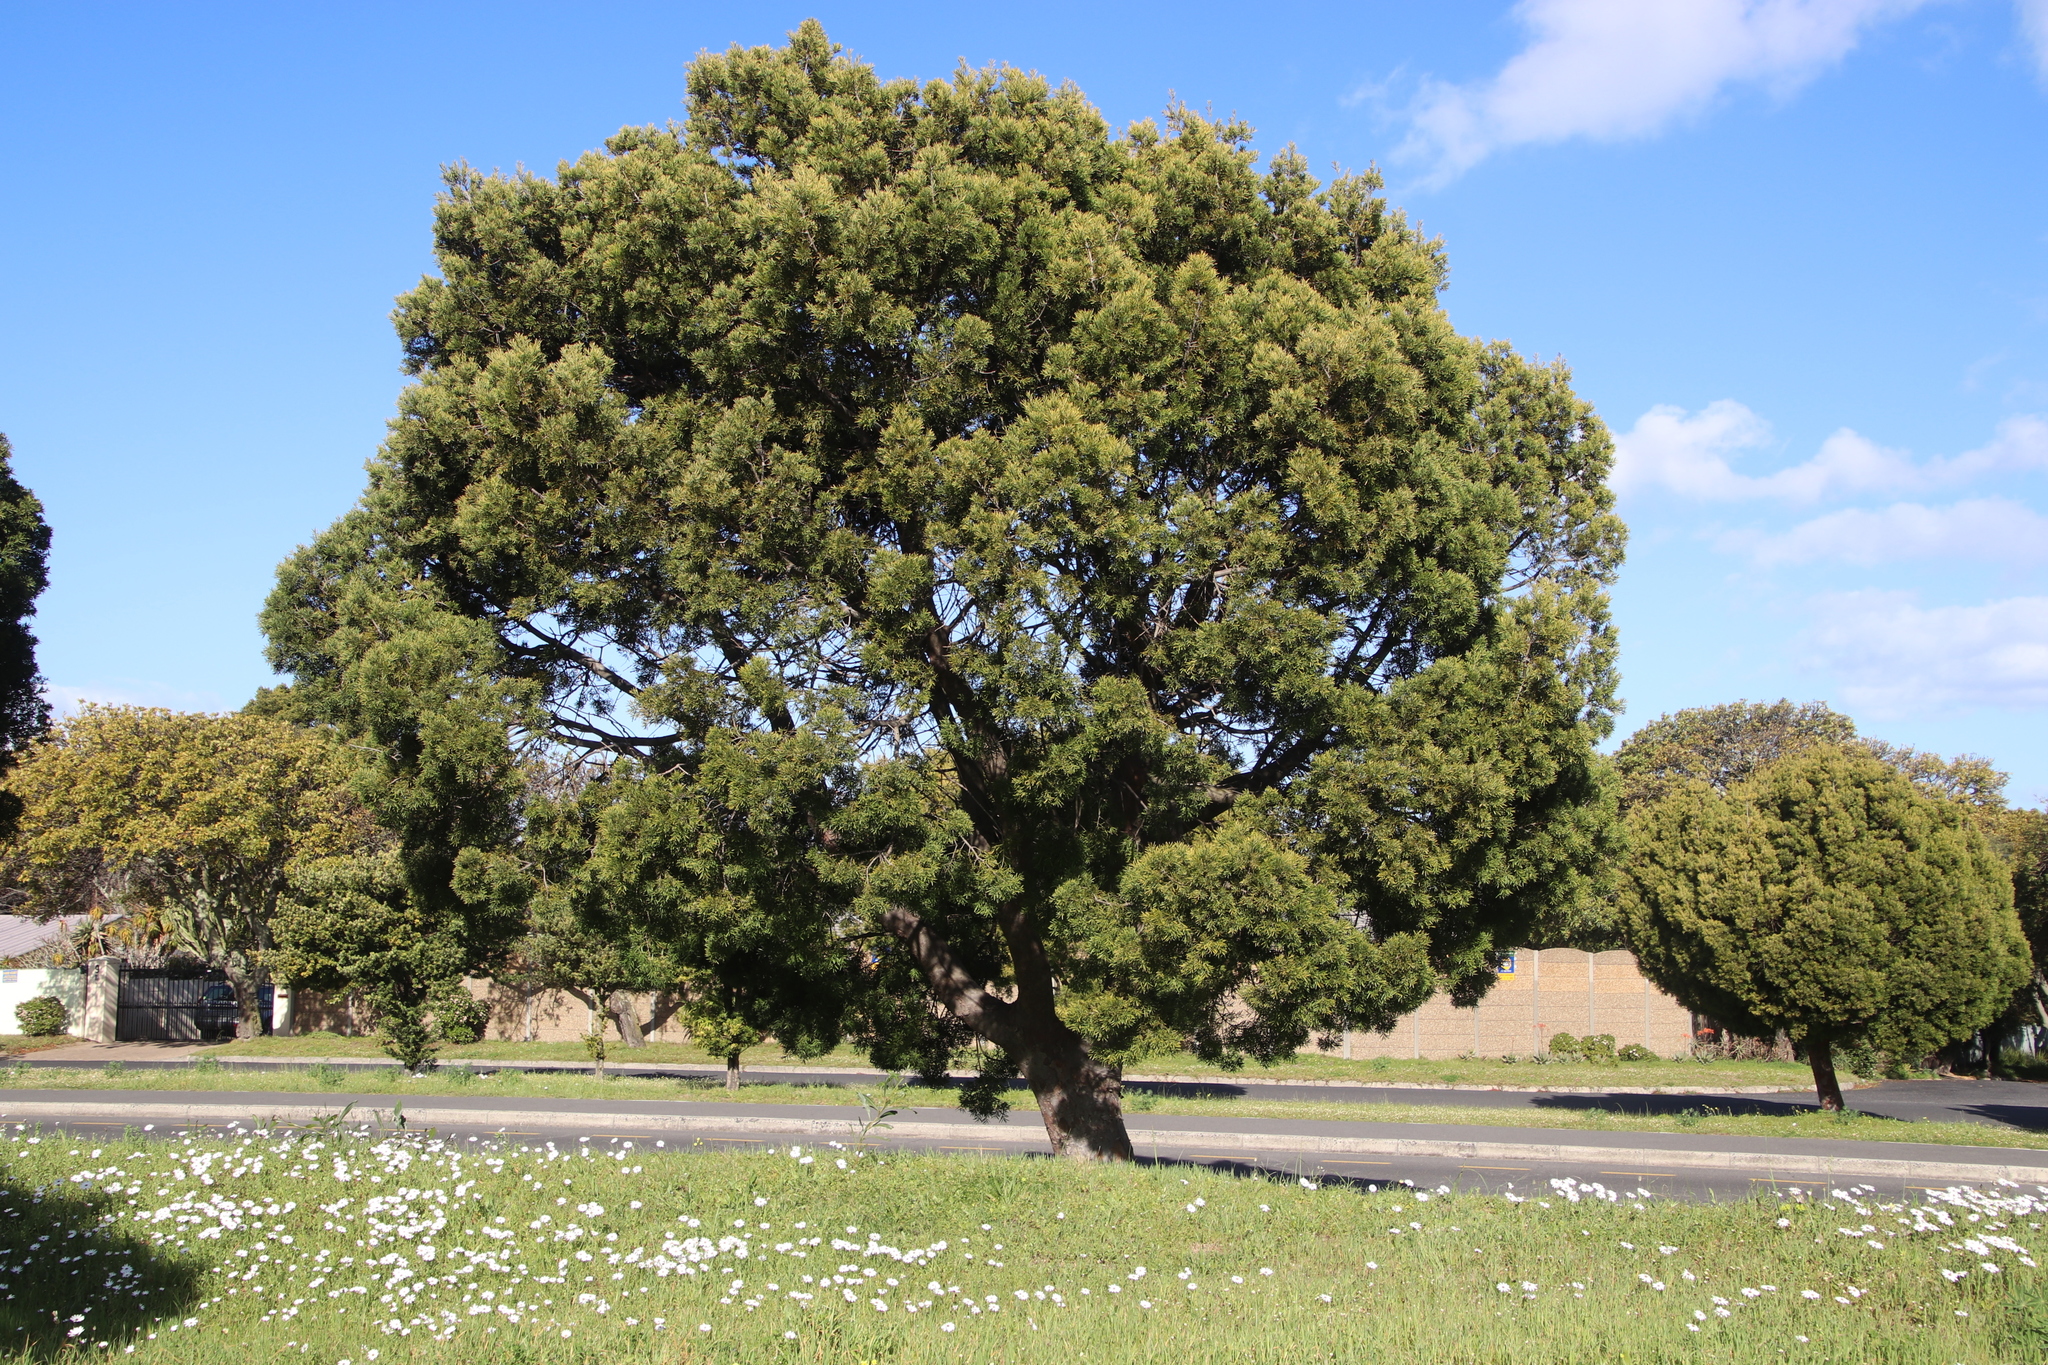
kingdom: Plantae
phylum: Tracheophyta
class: Pinopsida
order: Pinales
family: Podocarpaceae
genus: Afrocarpus
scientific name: Afrocarpus falcatus
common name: Bastard yellowwood
